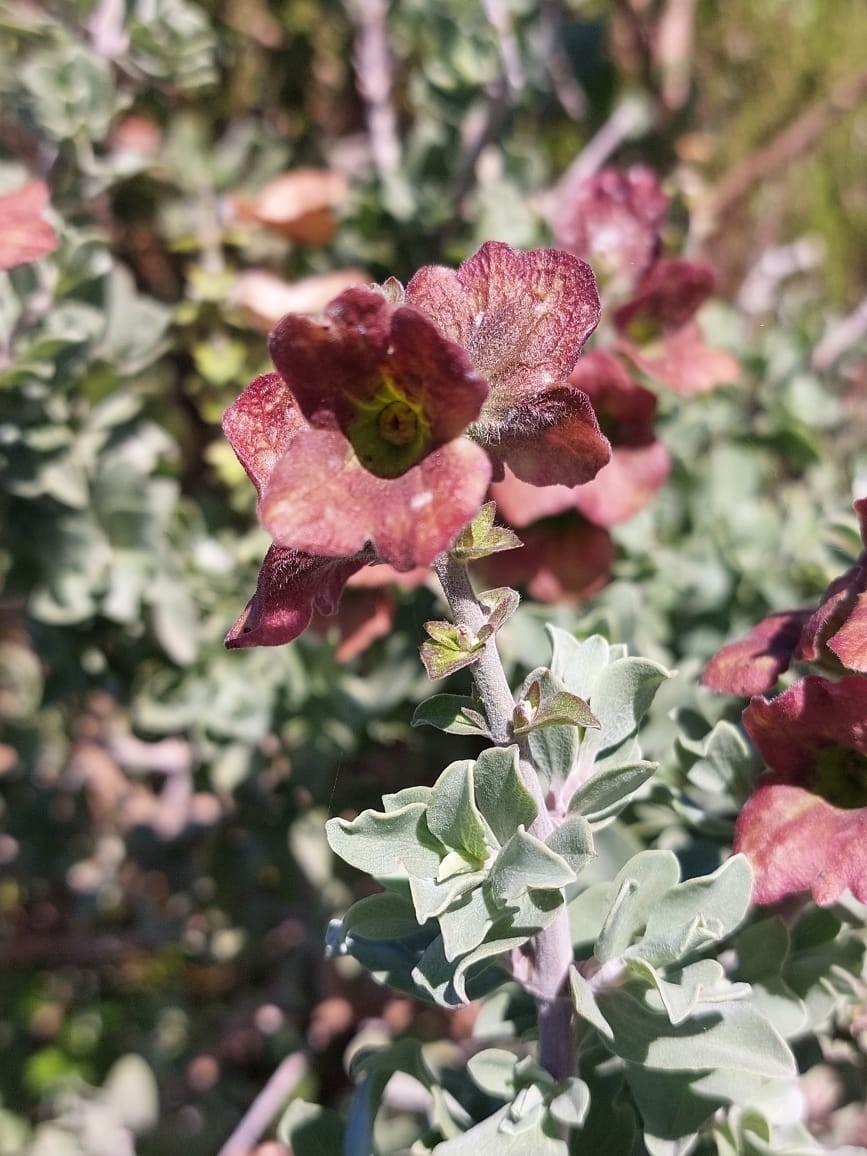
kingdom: Plantae
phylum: Tracheophyta
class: Magnoliopsida
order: Lamiales
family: Lamiaceae
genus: Salvia
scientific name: Salvia aurea
